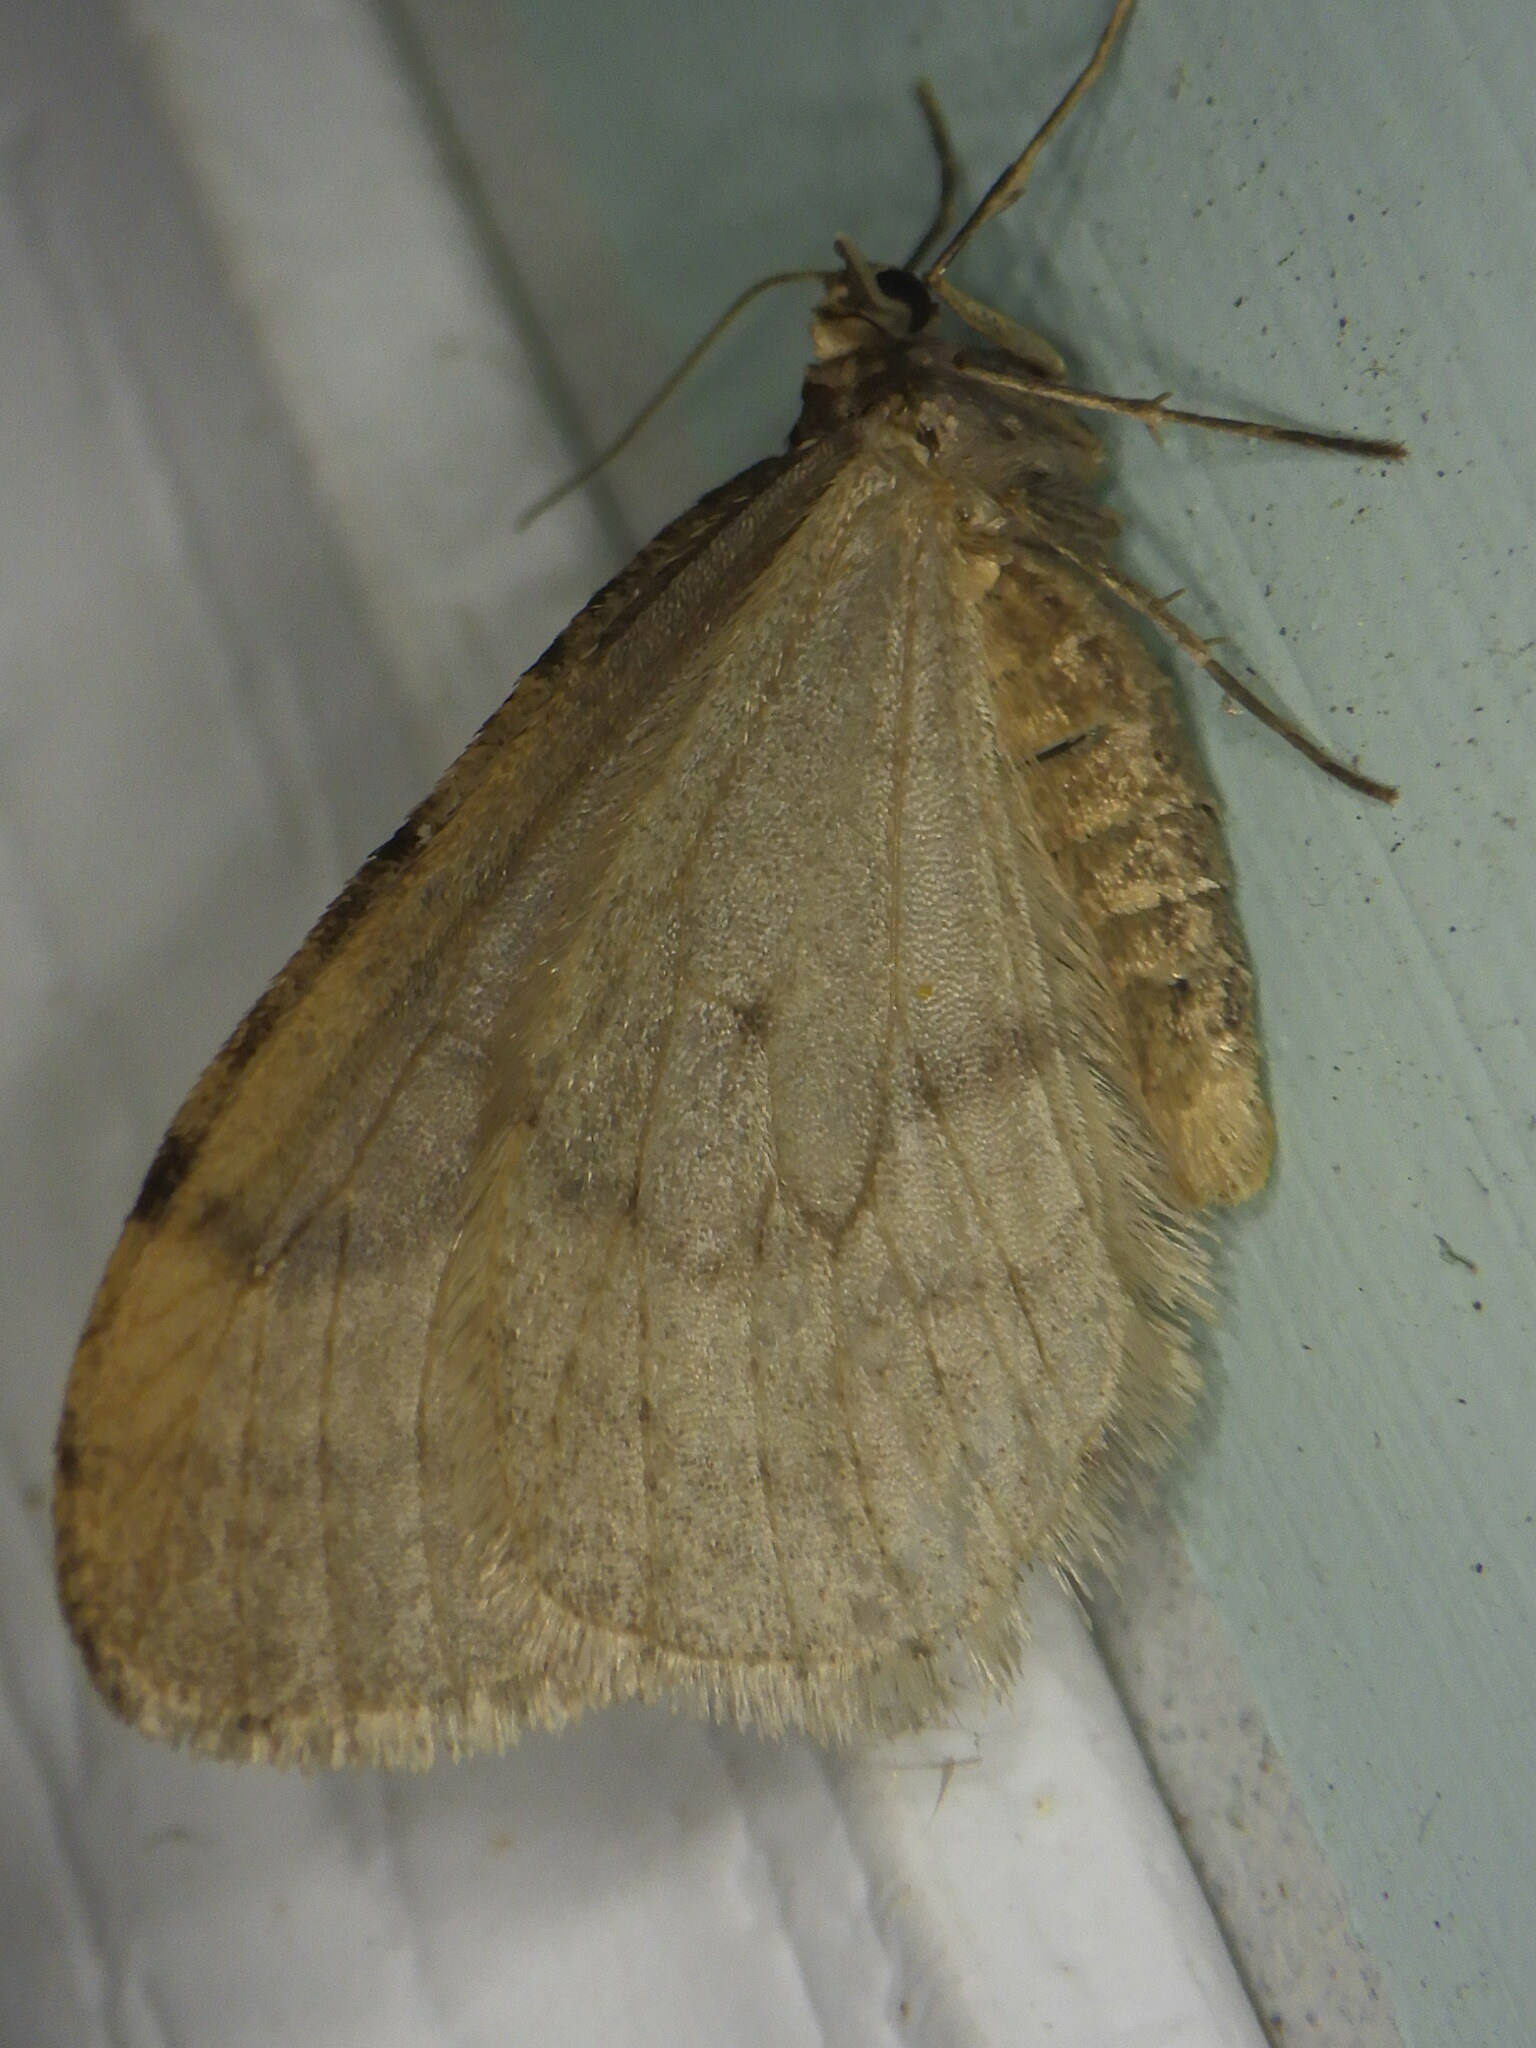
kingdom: Animalia
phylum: Arthropoda
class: Insecta
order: Lepidoptera
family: Geometridae
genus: Operophtera
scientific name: Operophtera bruceata
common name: Bruce spanworm
